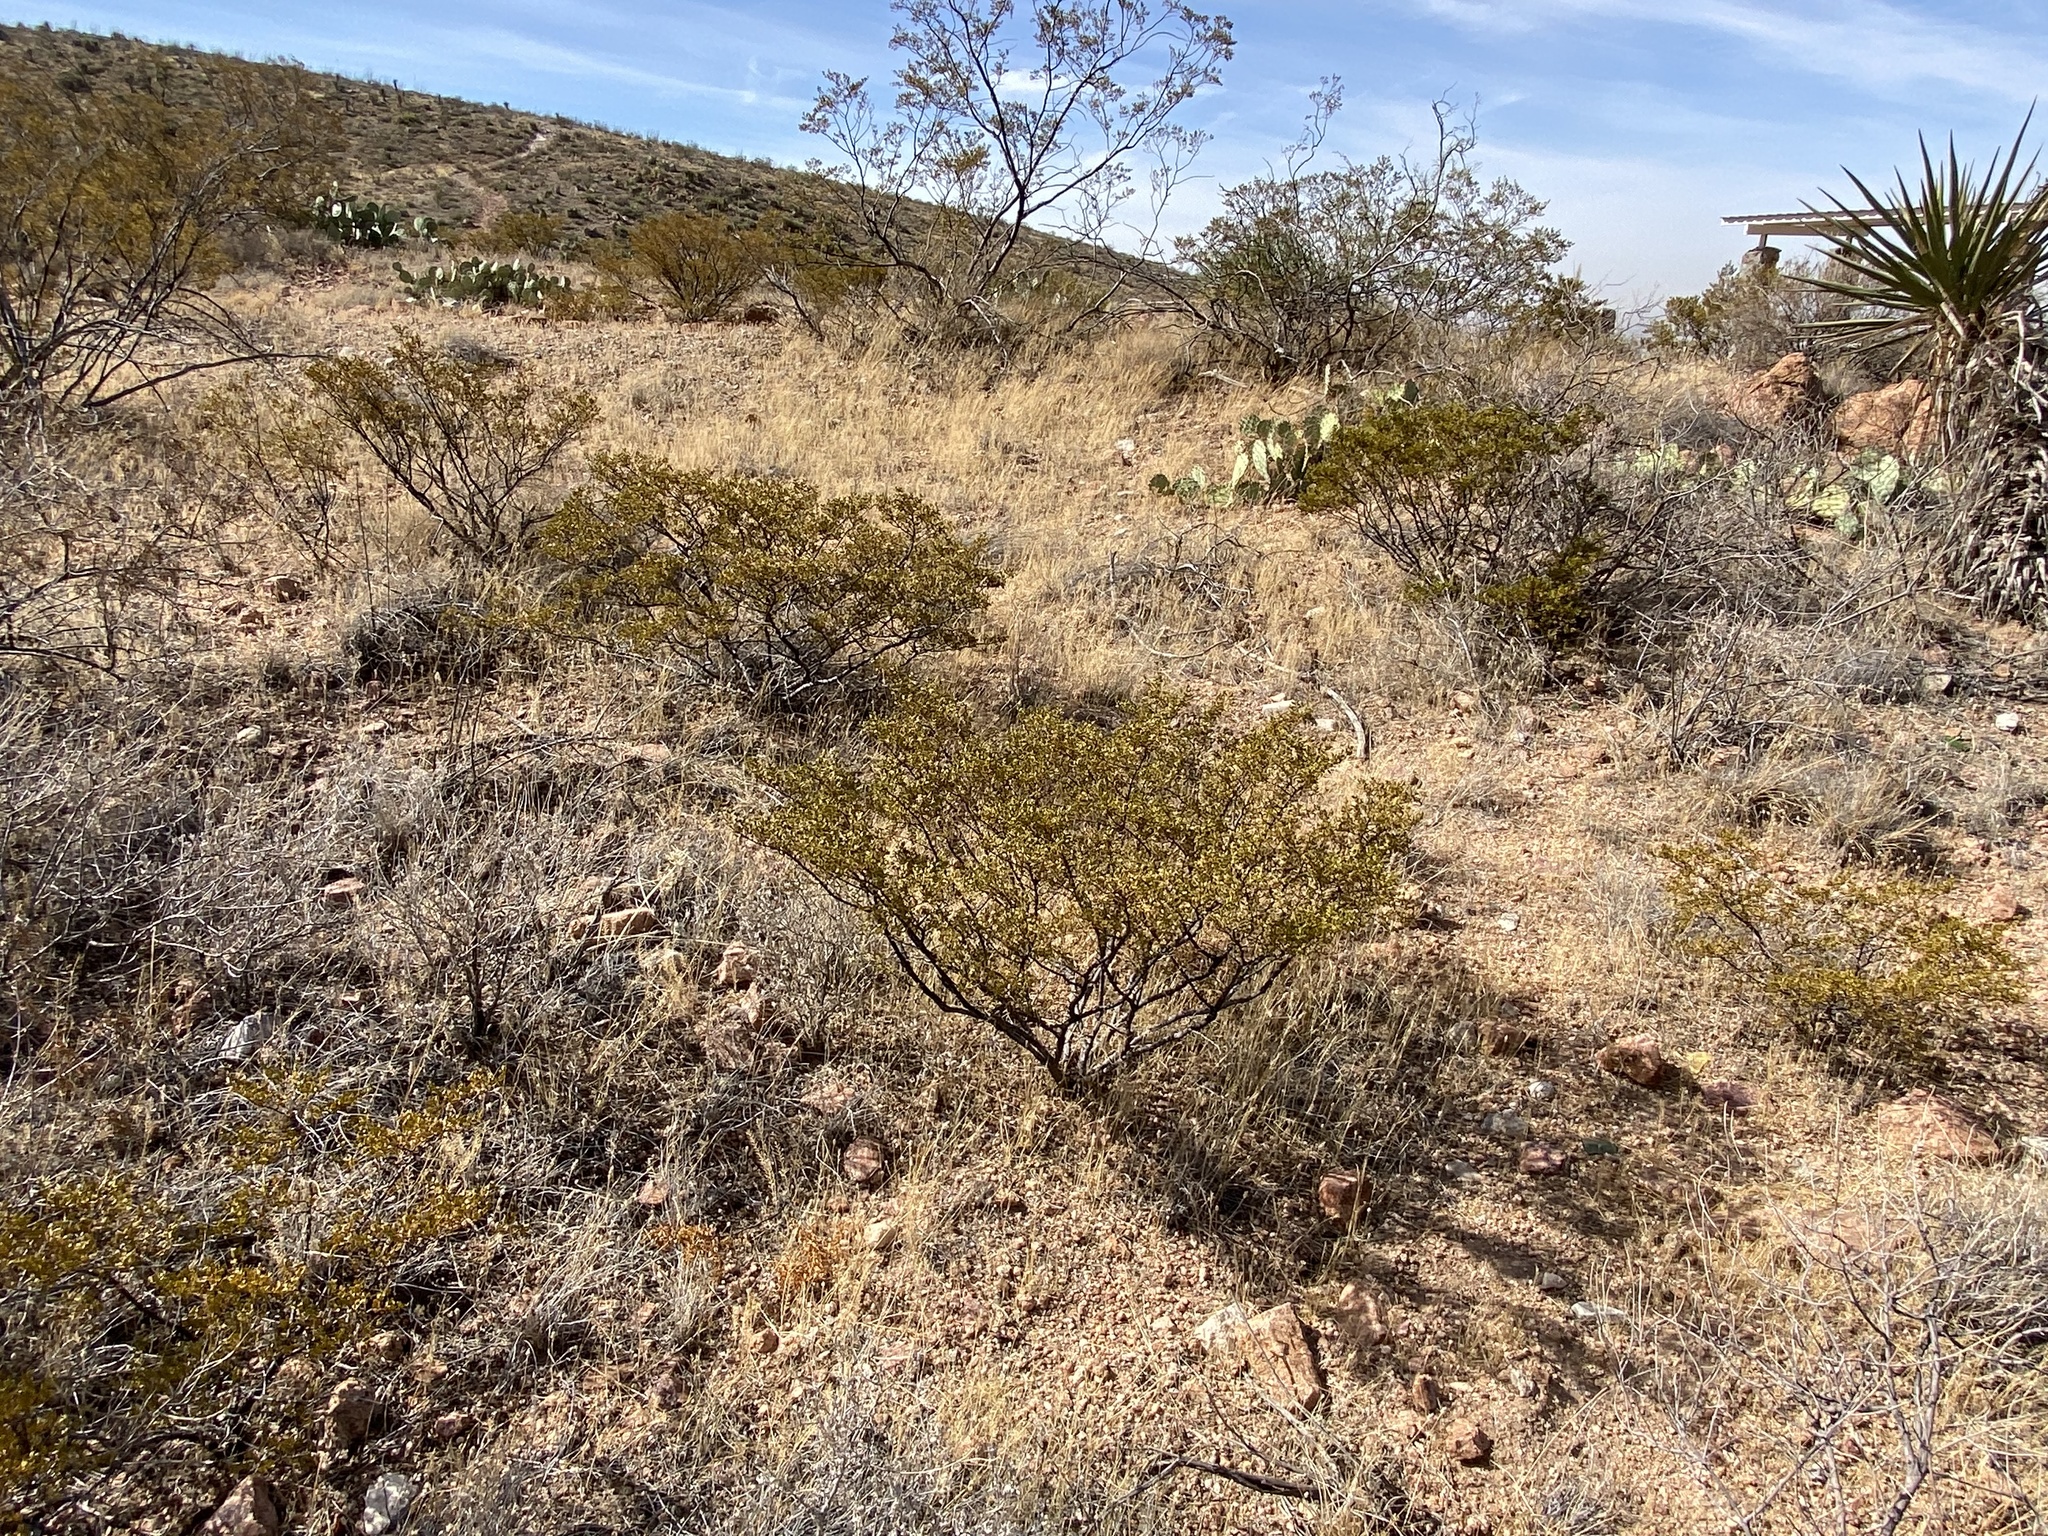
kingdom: Plantae
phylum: Tracheophyta
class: Magnoliopsida
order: Zygophyllales
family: Zygophyllaceae
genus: Larrea
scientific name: Larrea tridentata
